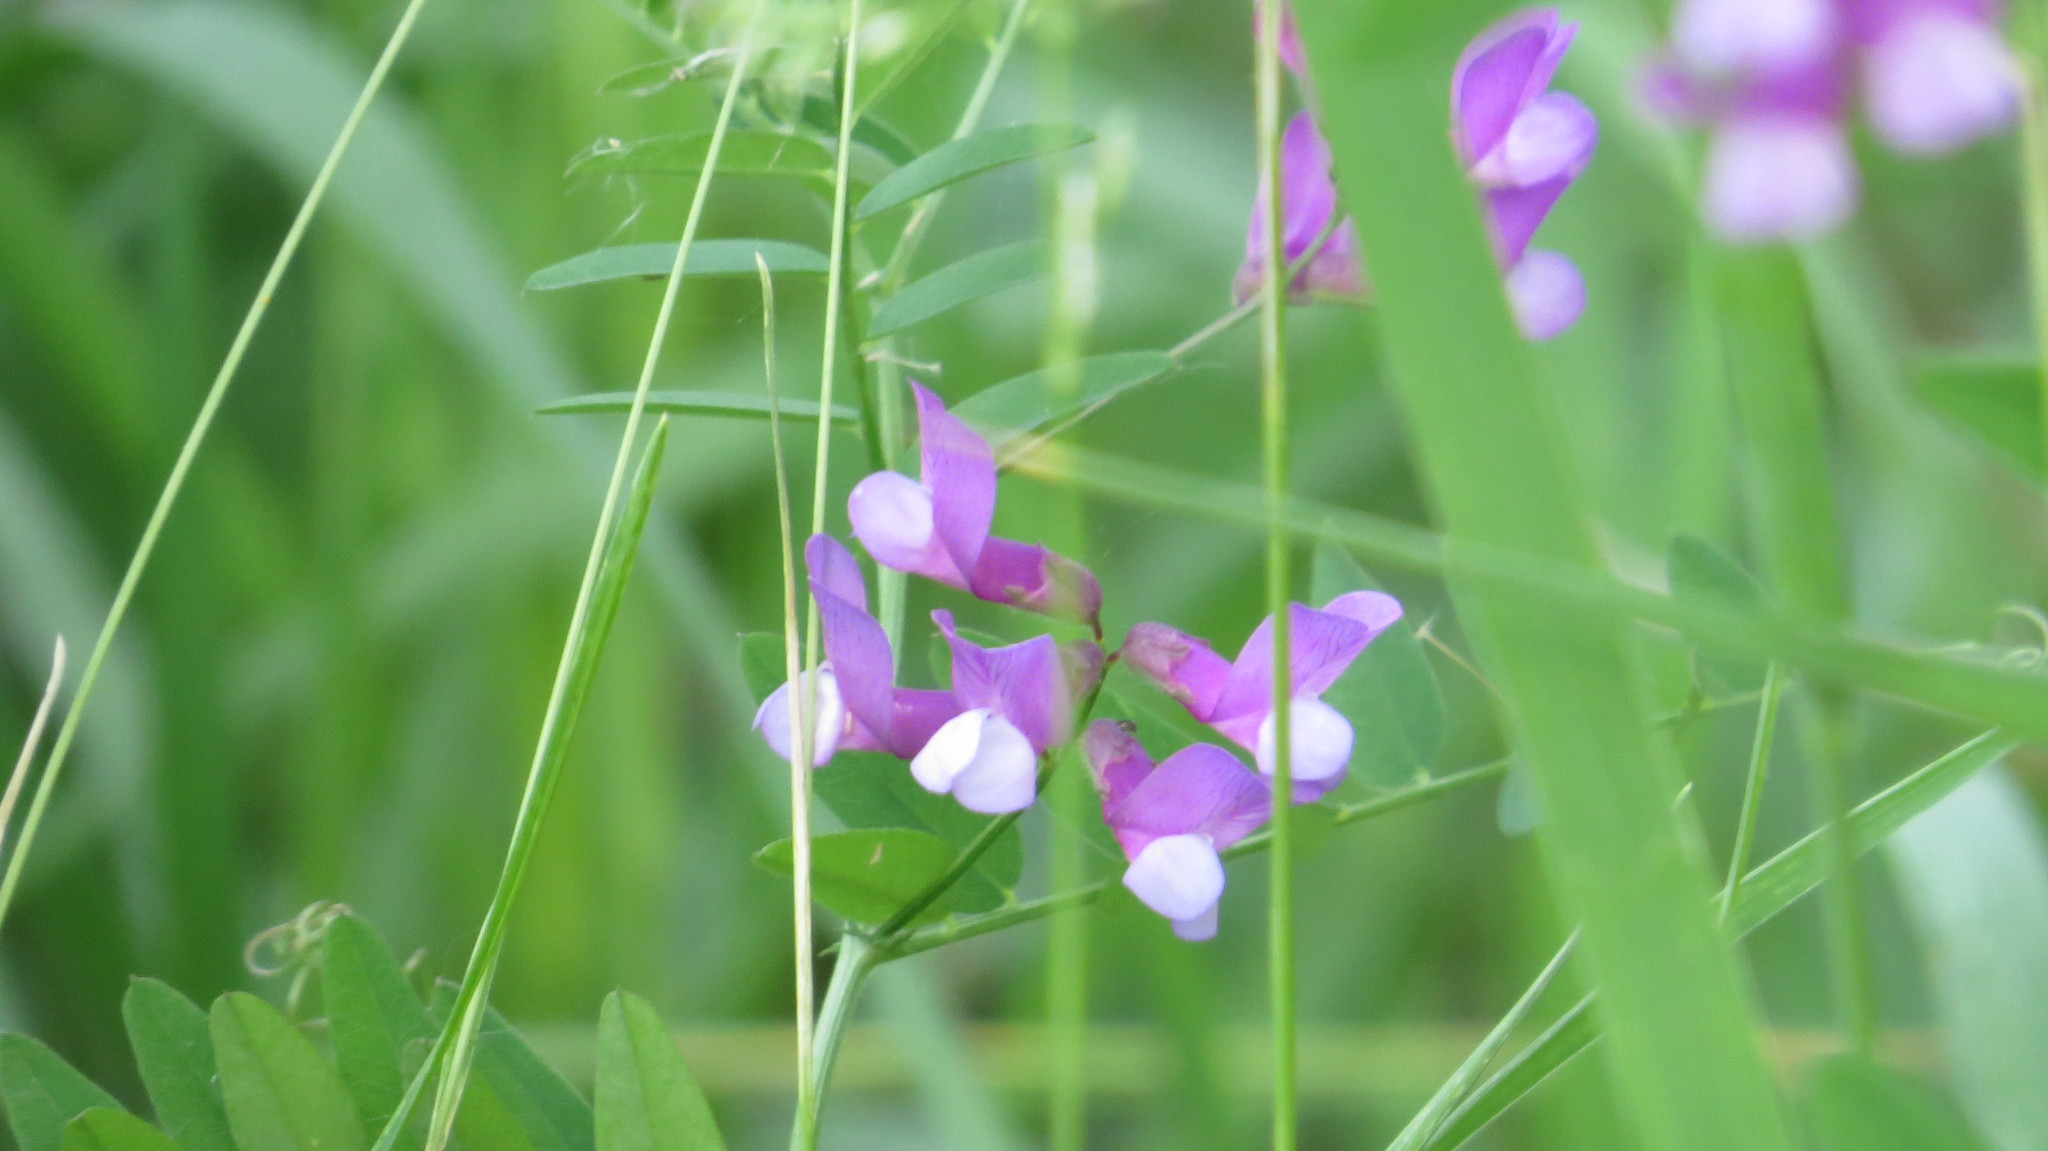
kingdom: Plantae
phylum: Tracheophyta
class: Magnoliopsida
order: Fabales
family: Fabaceae
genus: Vicia
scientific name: Vicia americana
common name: American vetch
